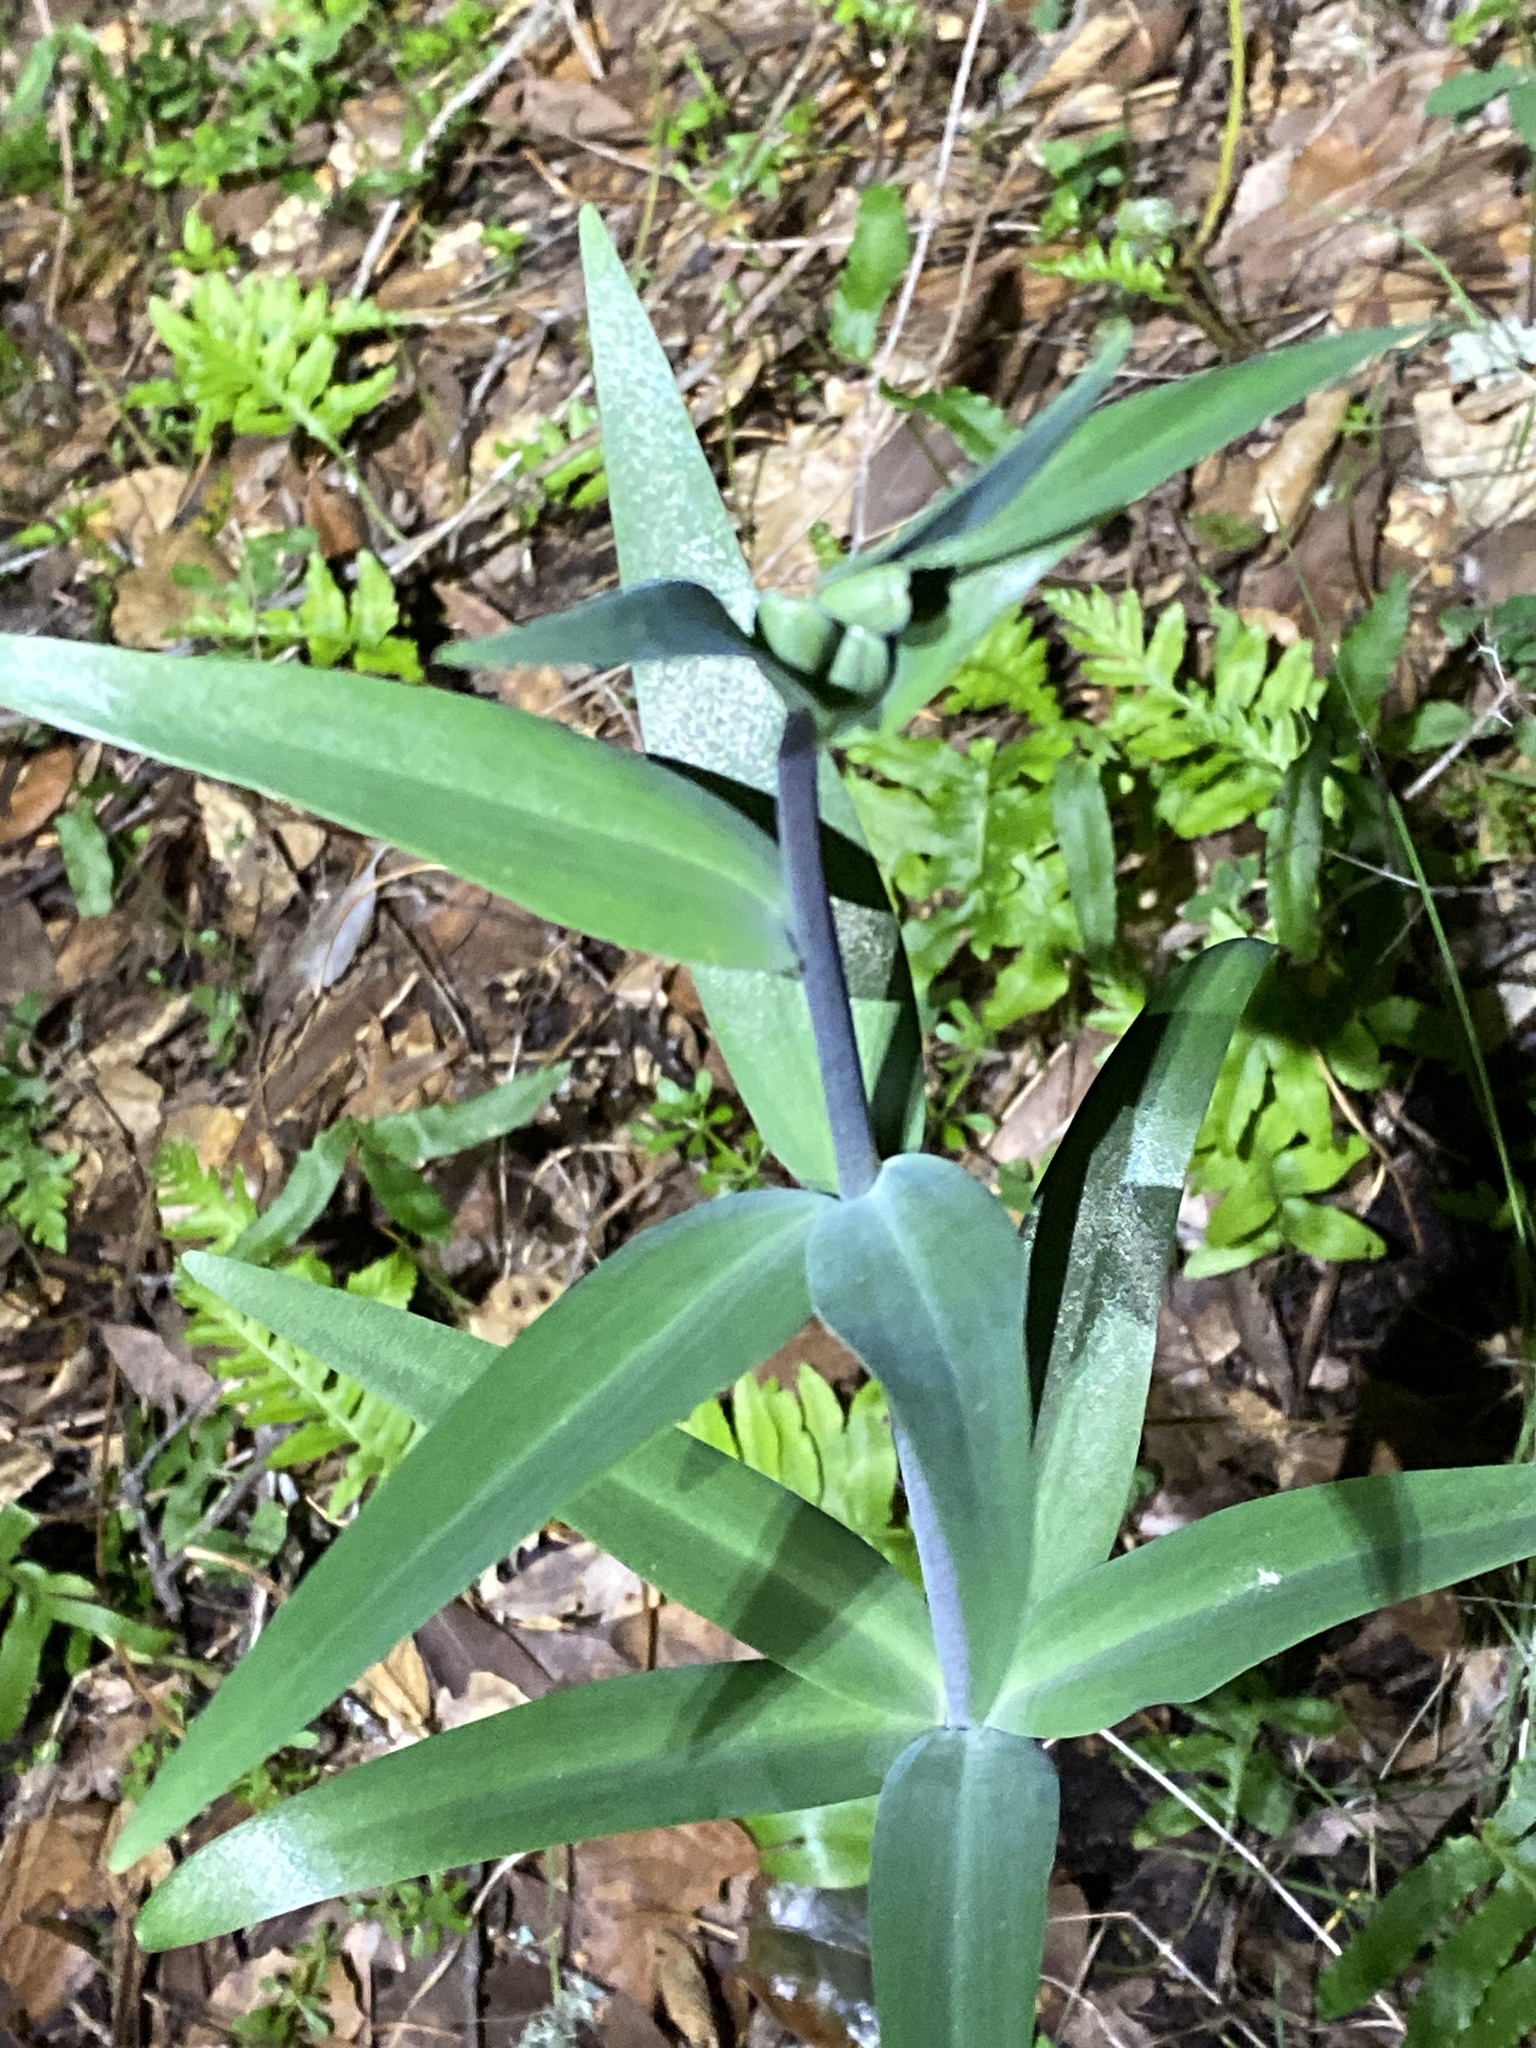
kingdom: Plantae
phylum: Tracheophyta
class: Liliopsida
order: Liliales
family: Liliaceae
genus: Fritillaria
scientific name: Fritillaria affinis
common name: Ojai fritillary
